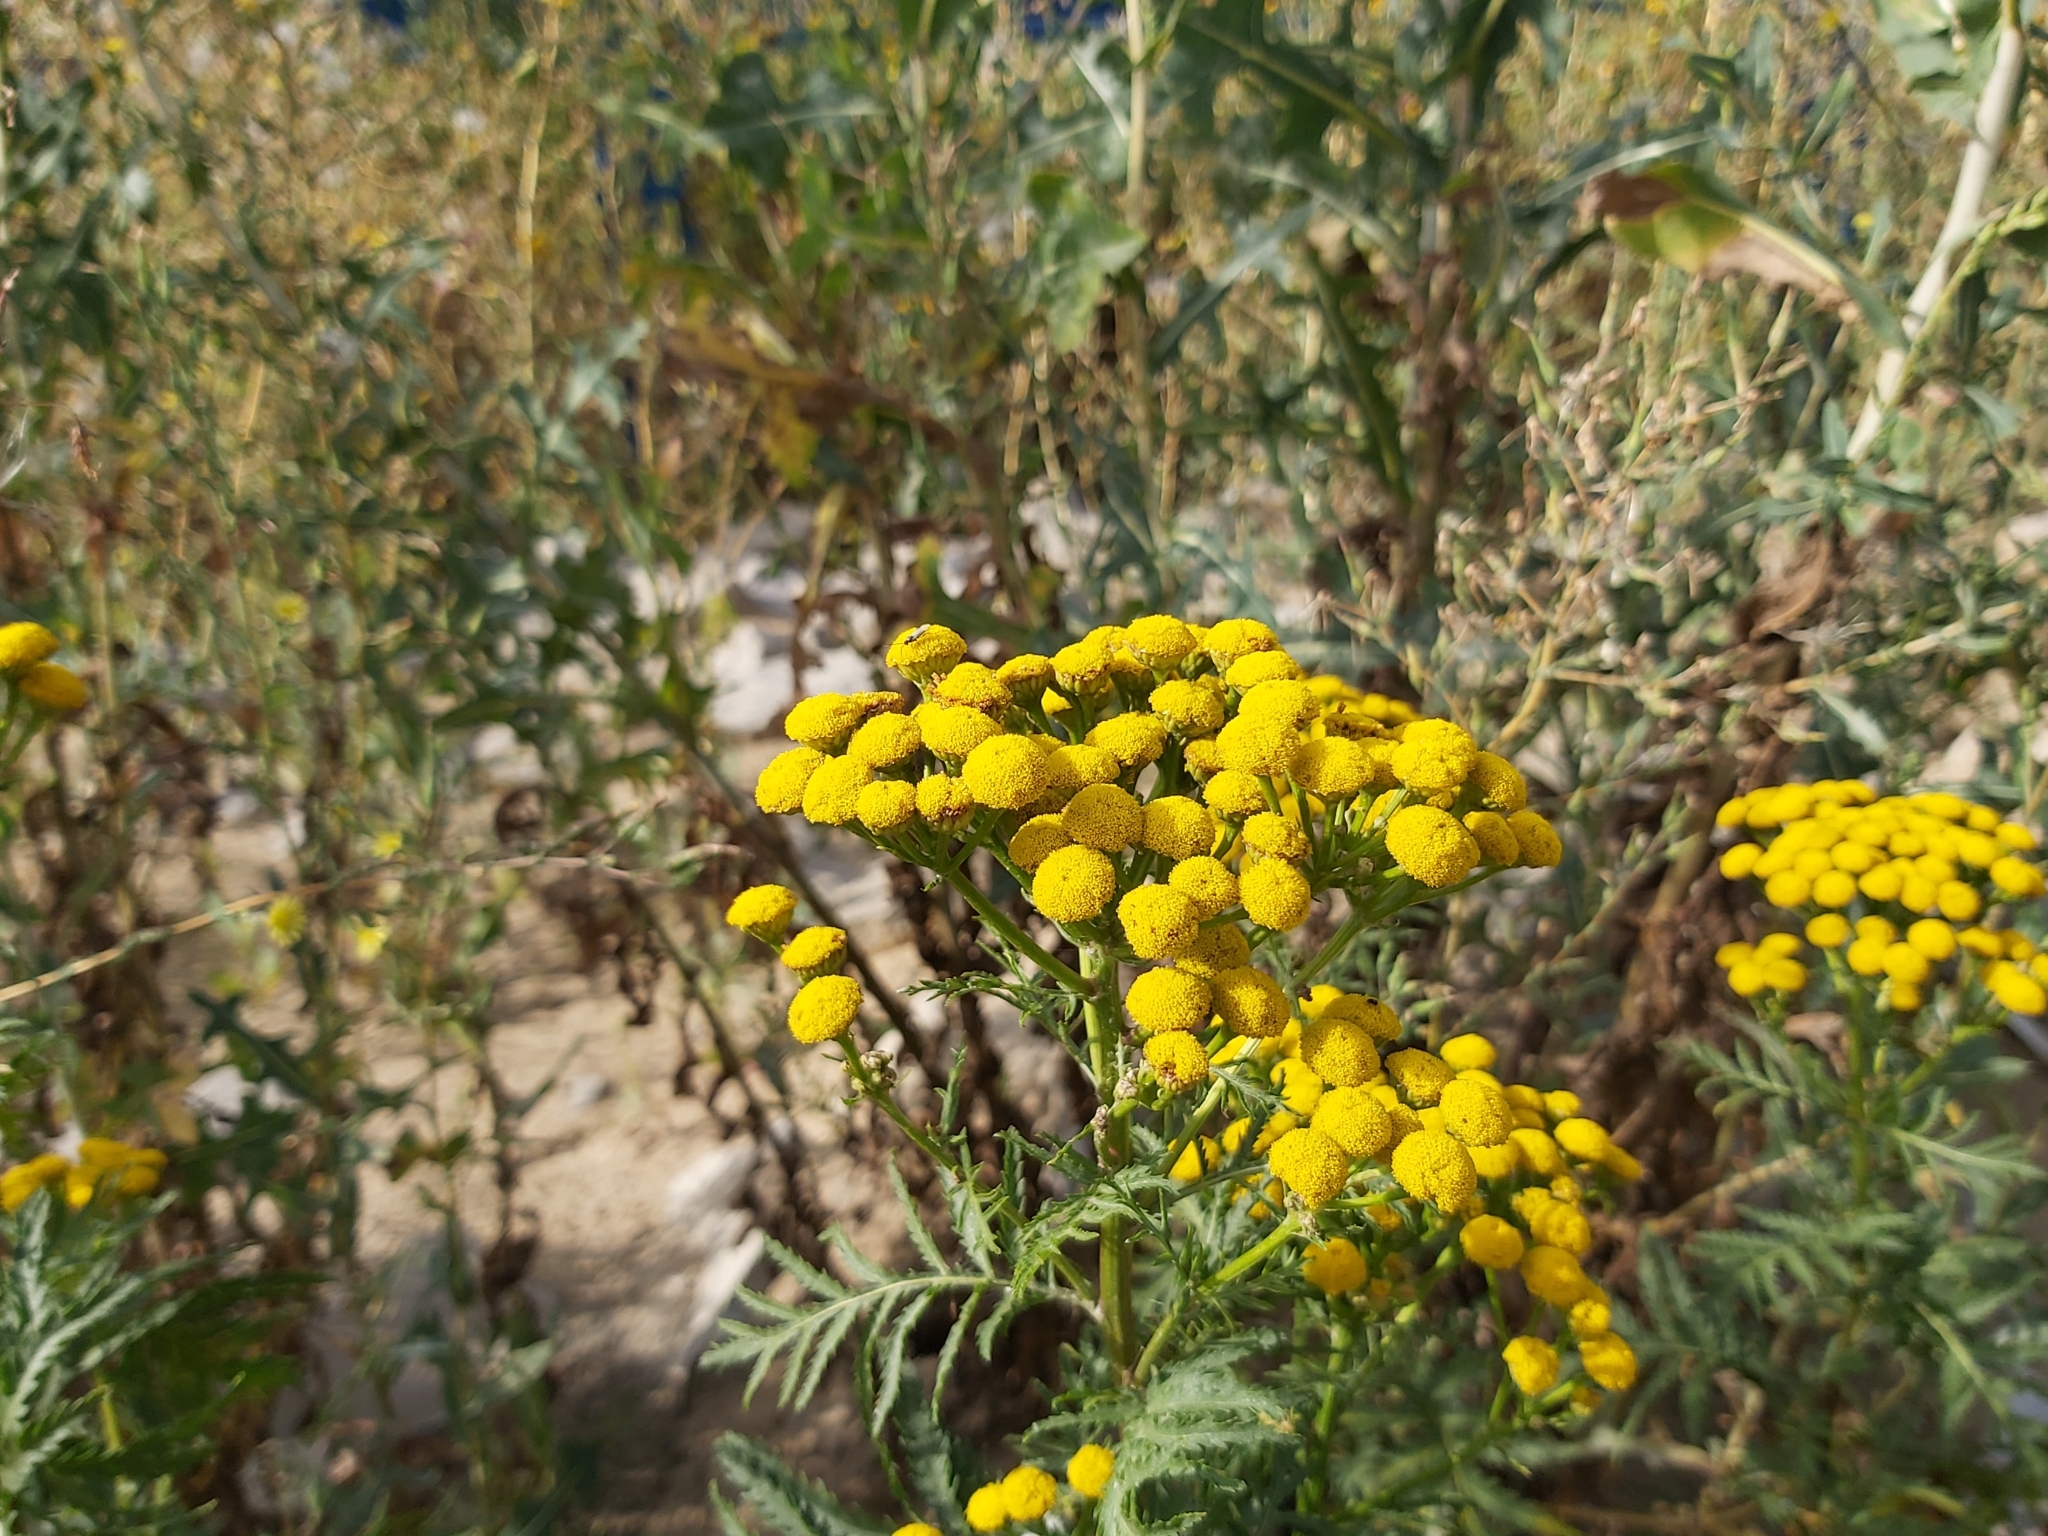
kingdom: Plantae
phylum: Tracheophyta
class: Magnoliopsida
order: Asterales
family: Asteraceae
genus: Tanacetum
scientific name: Tanacetum vulgare
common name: Common tansy
